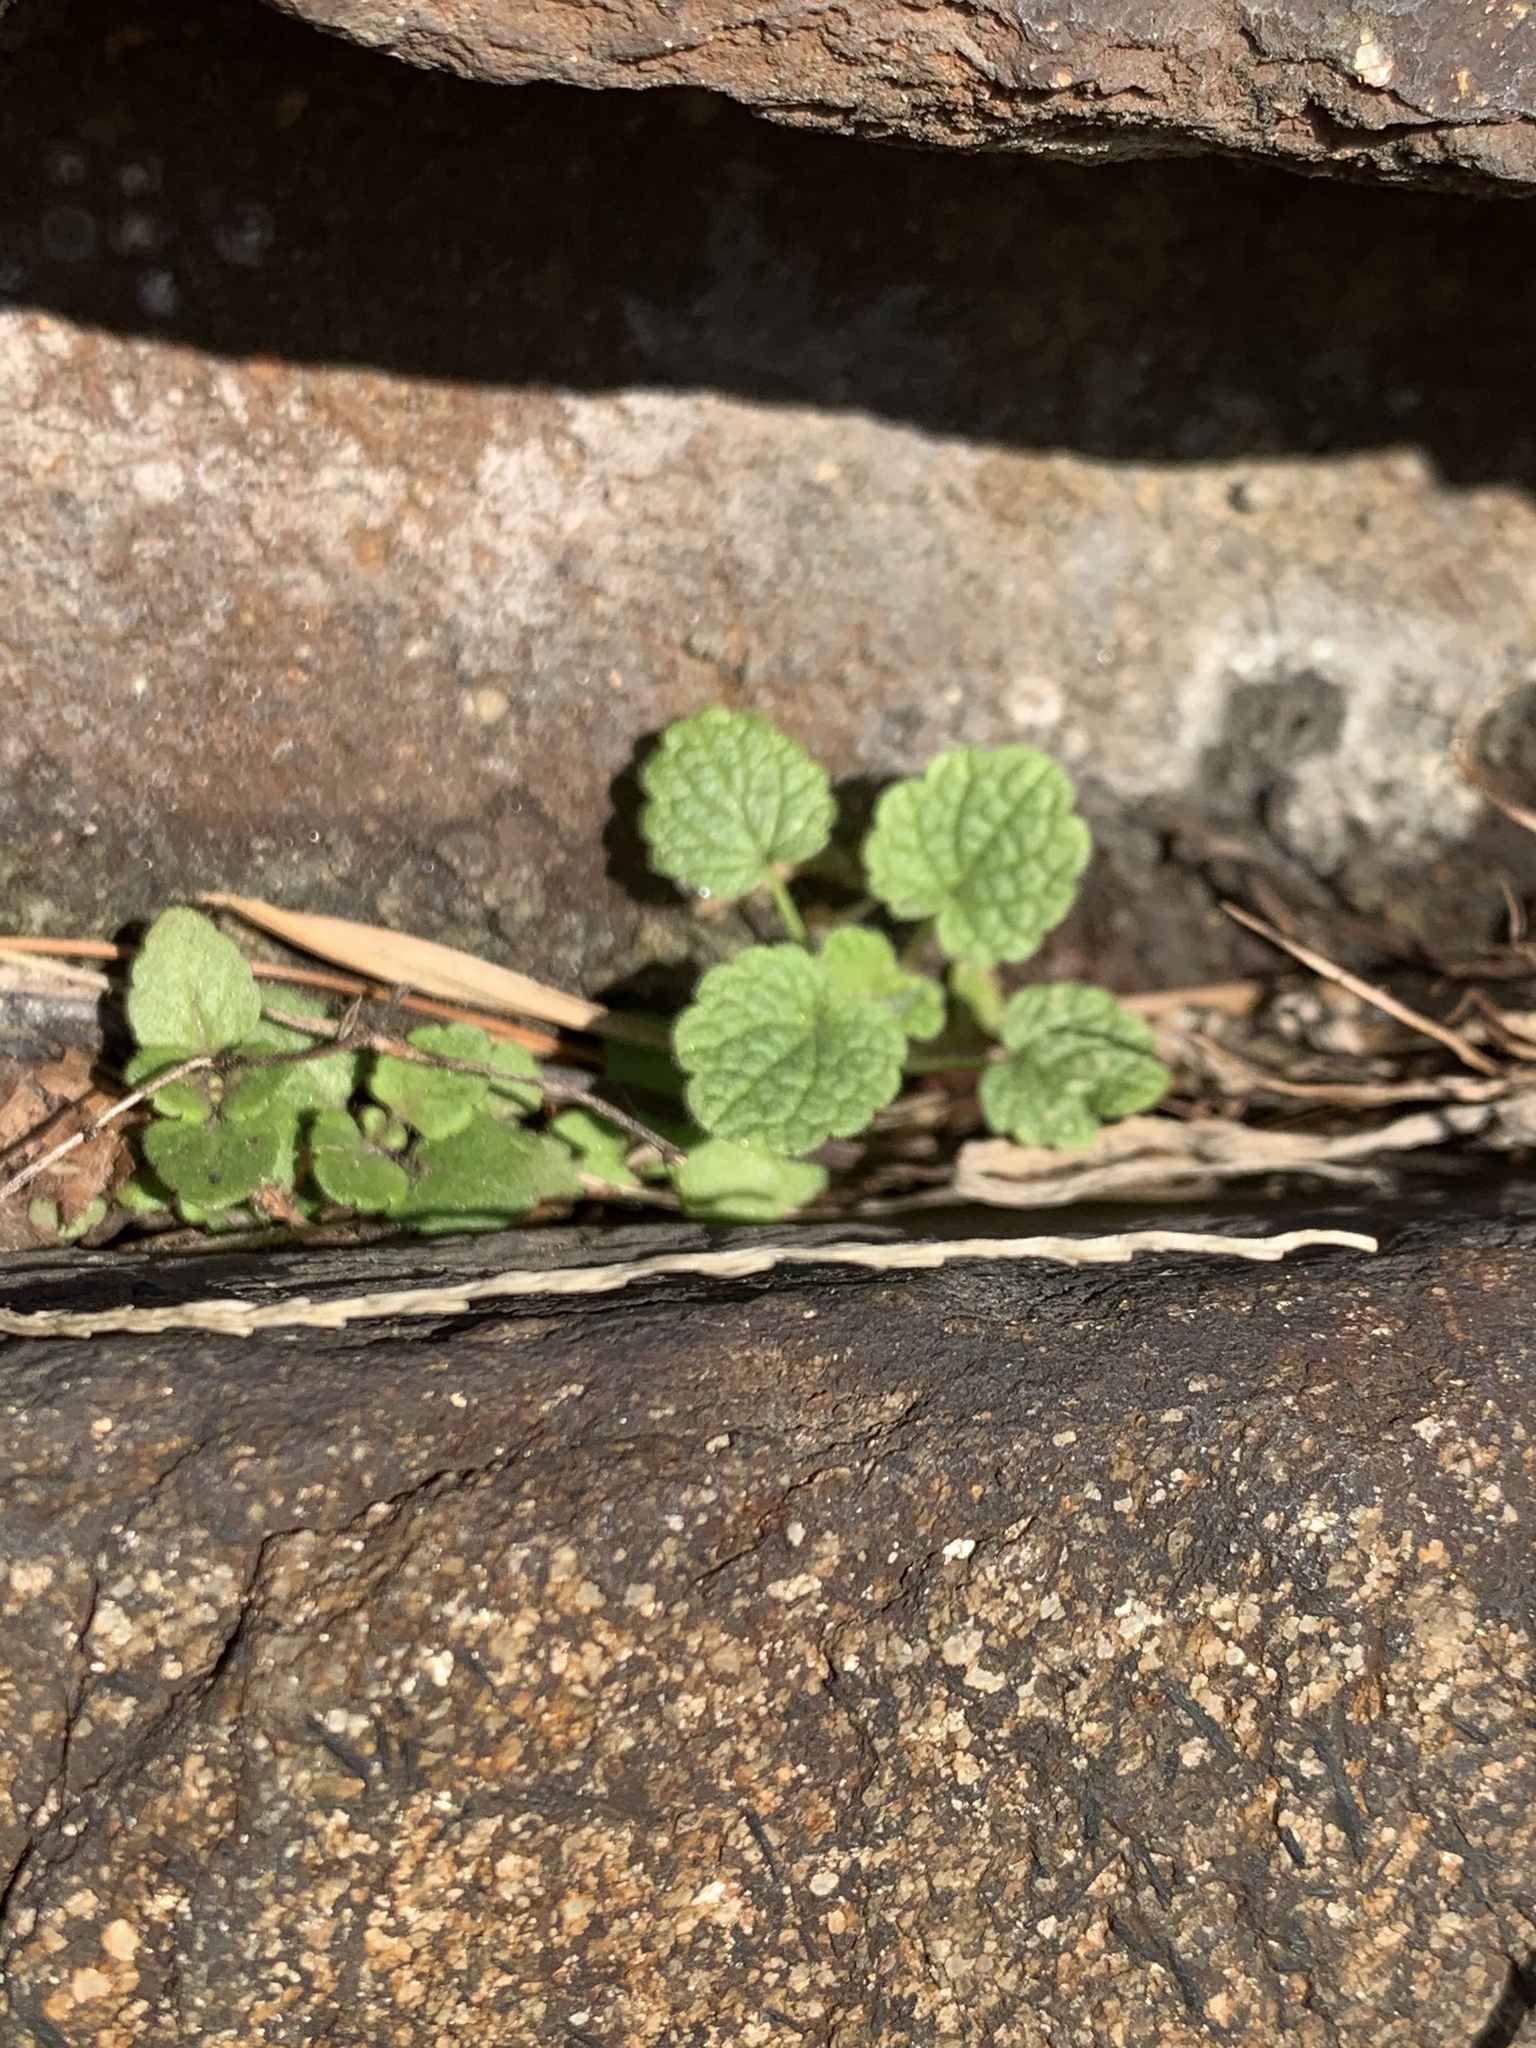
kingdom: Plantae
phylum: Tracheophyta
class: Magnoliopsida
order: Lamiales
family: Lamiaceae
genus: Lamium
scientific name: Lamium purpureum
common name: Red dead-nettle
